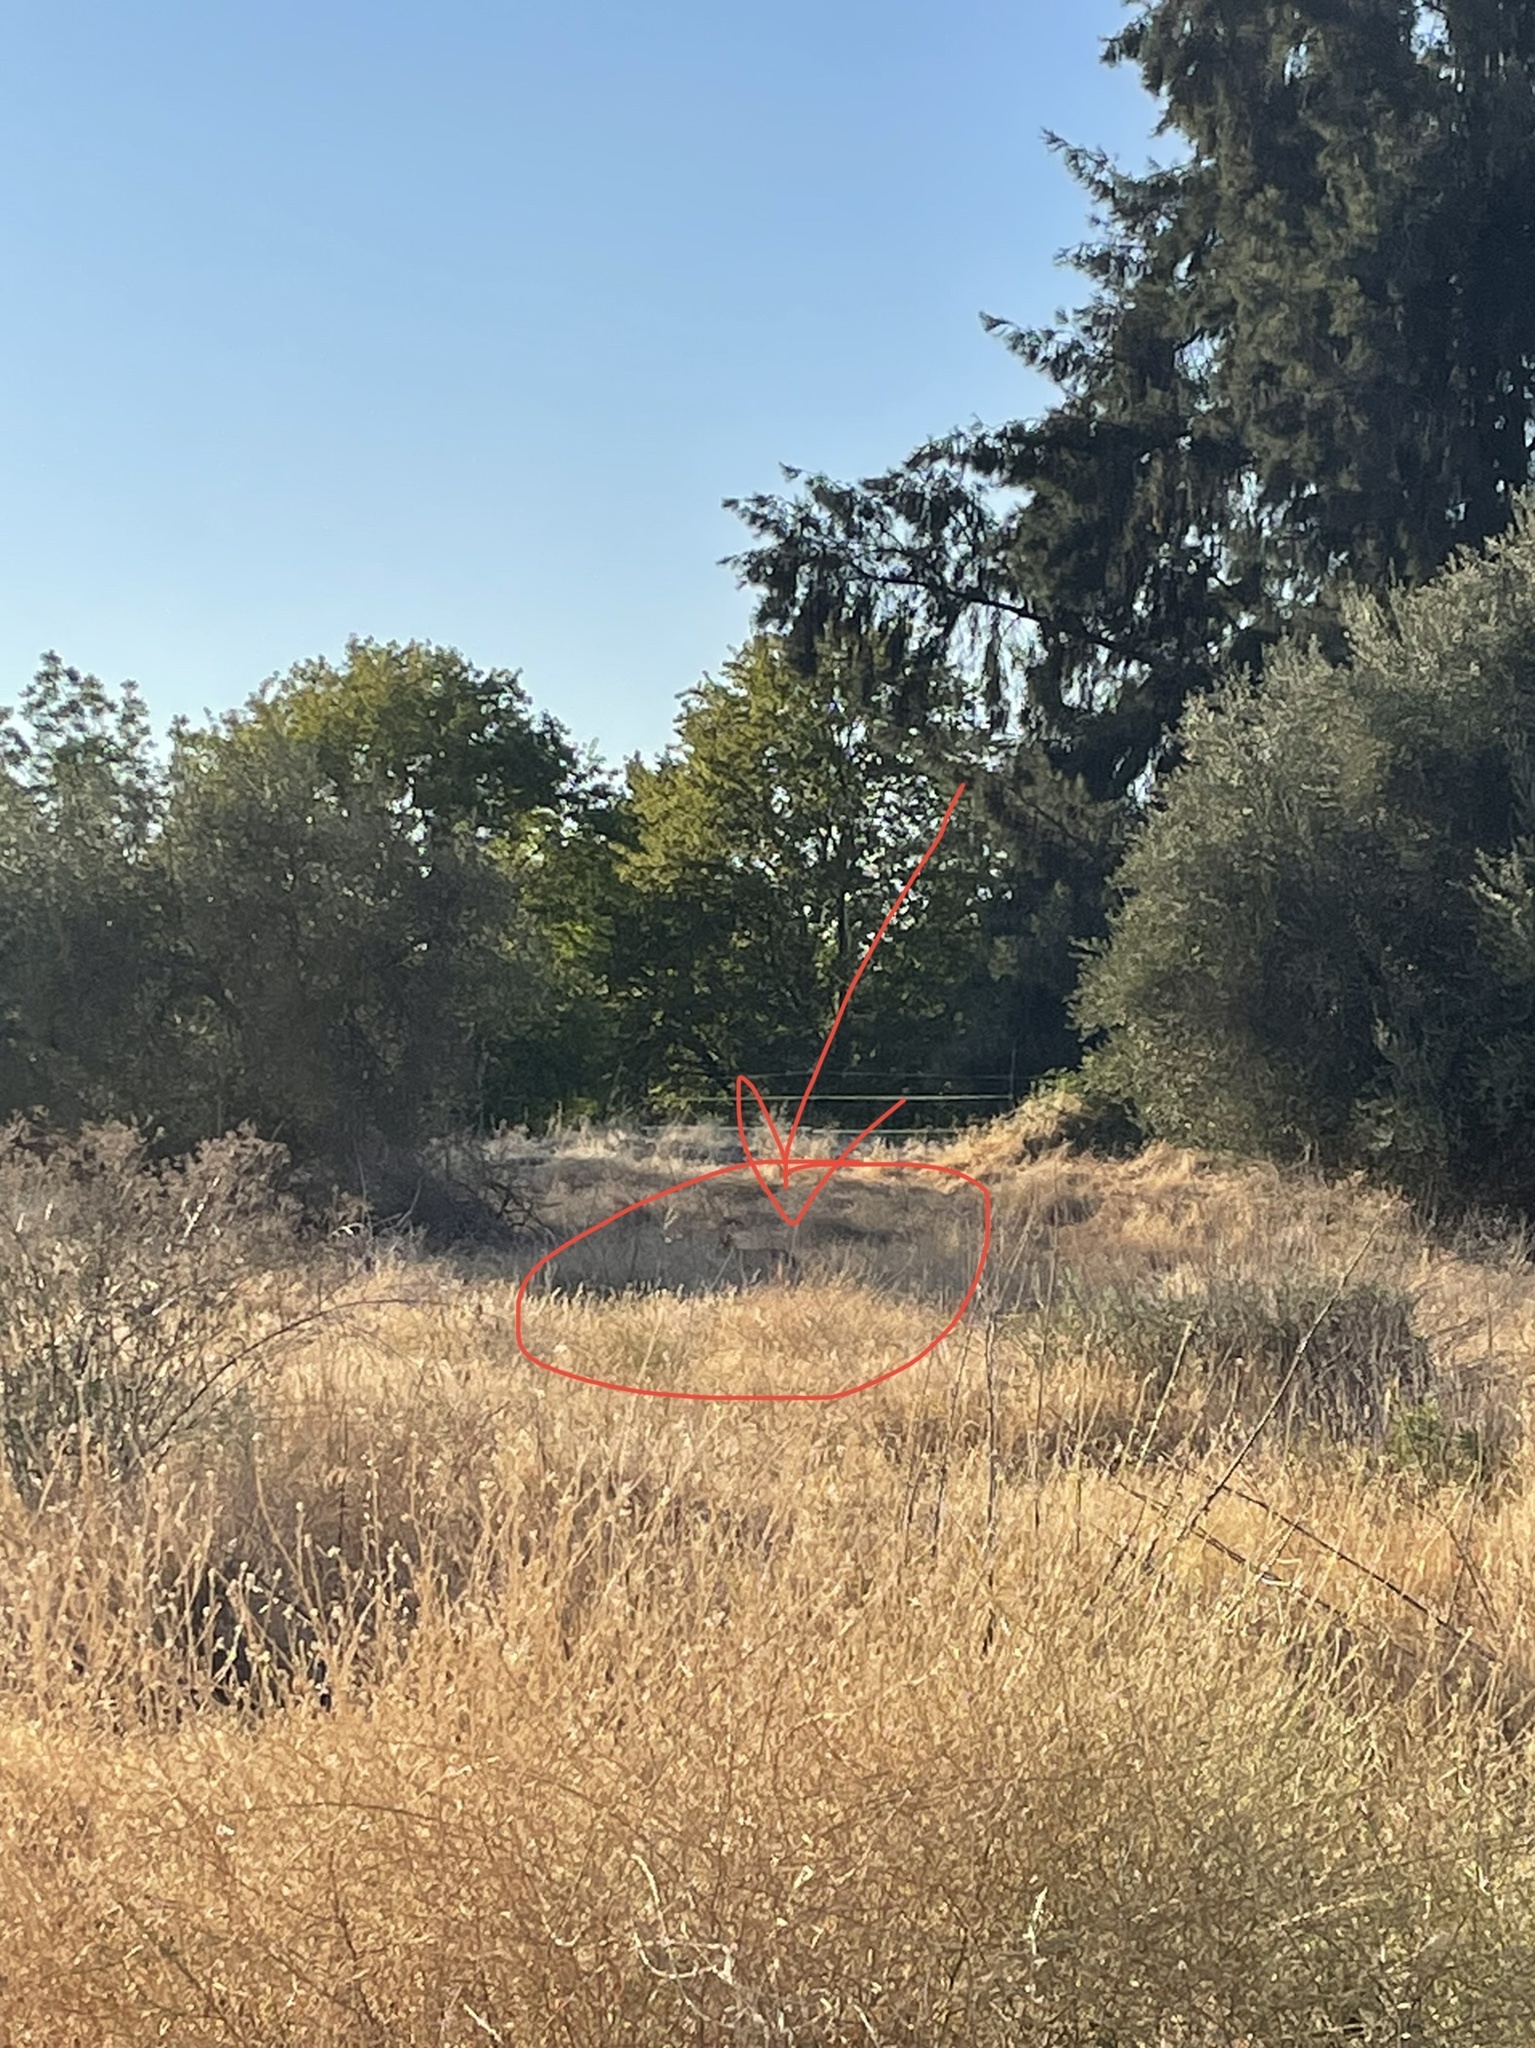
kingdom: Animalia
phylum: Chordata
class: Mammalia
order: Carnivora
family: Canidae
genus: Canis
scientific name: Canis latrans
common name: Coyote
